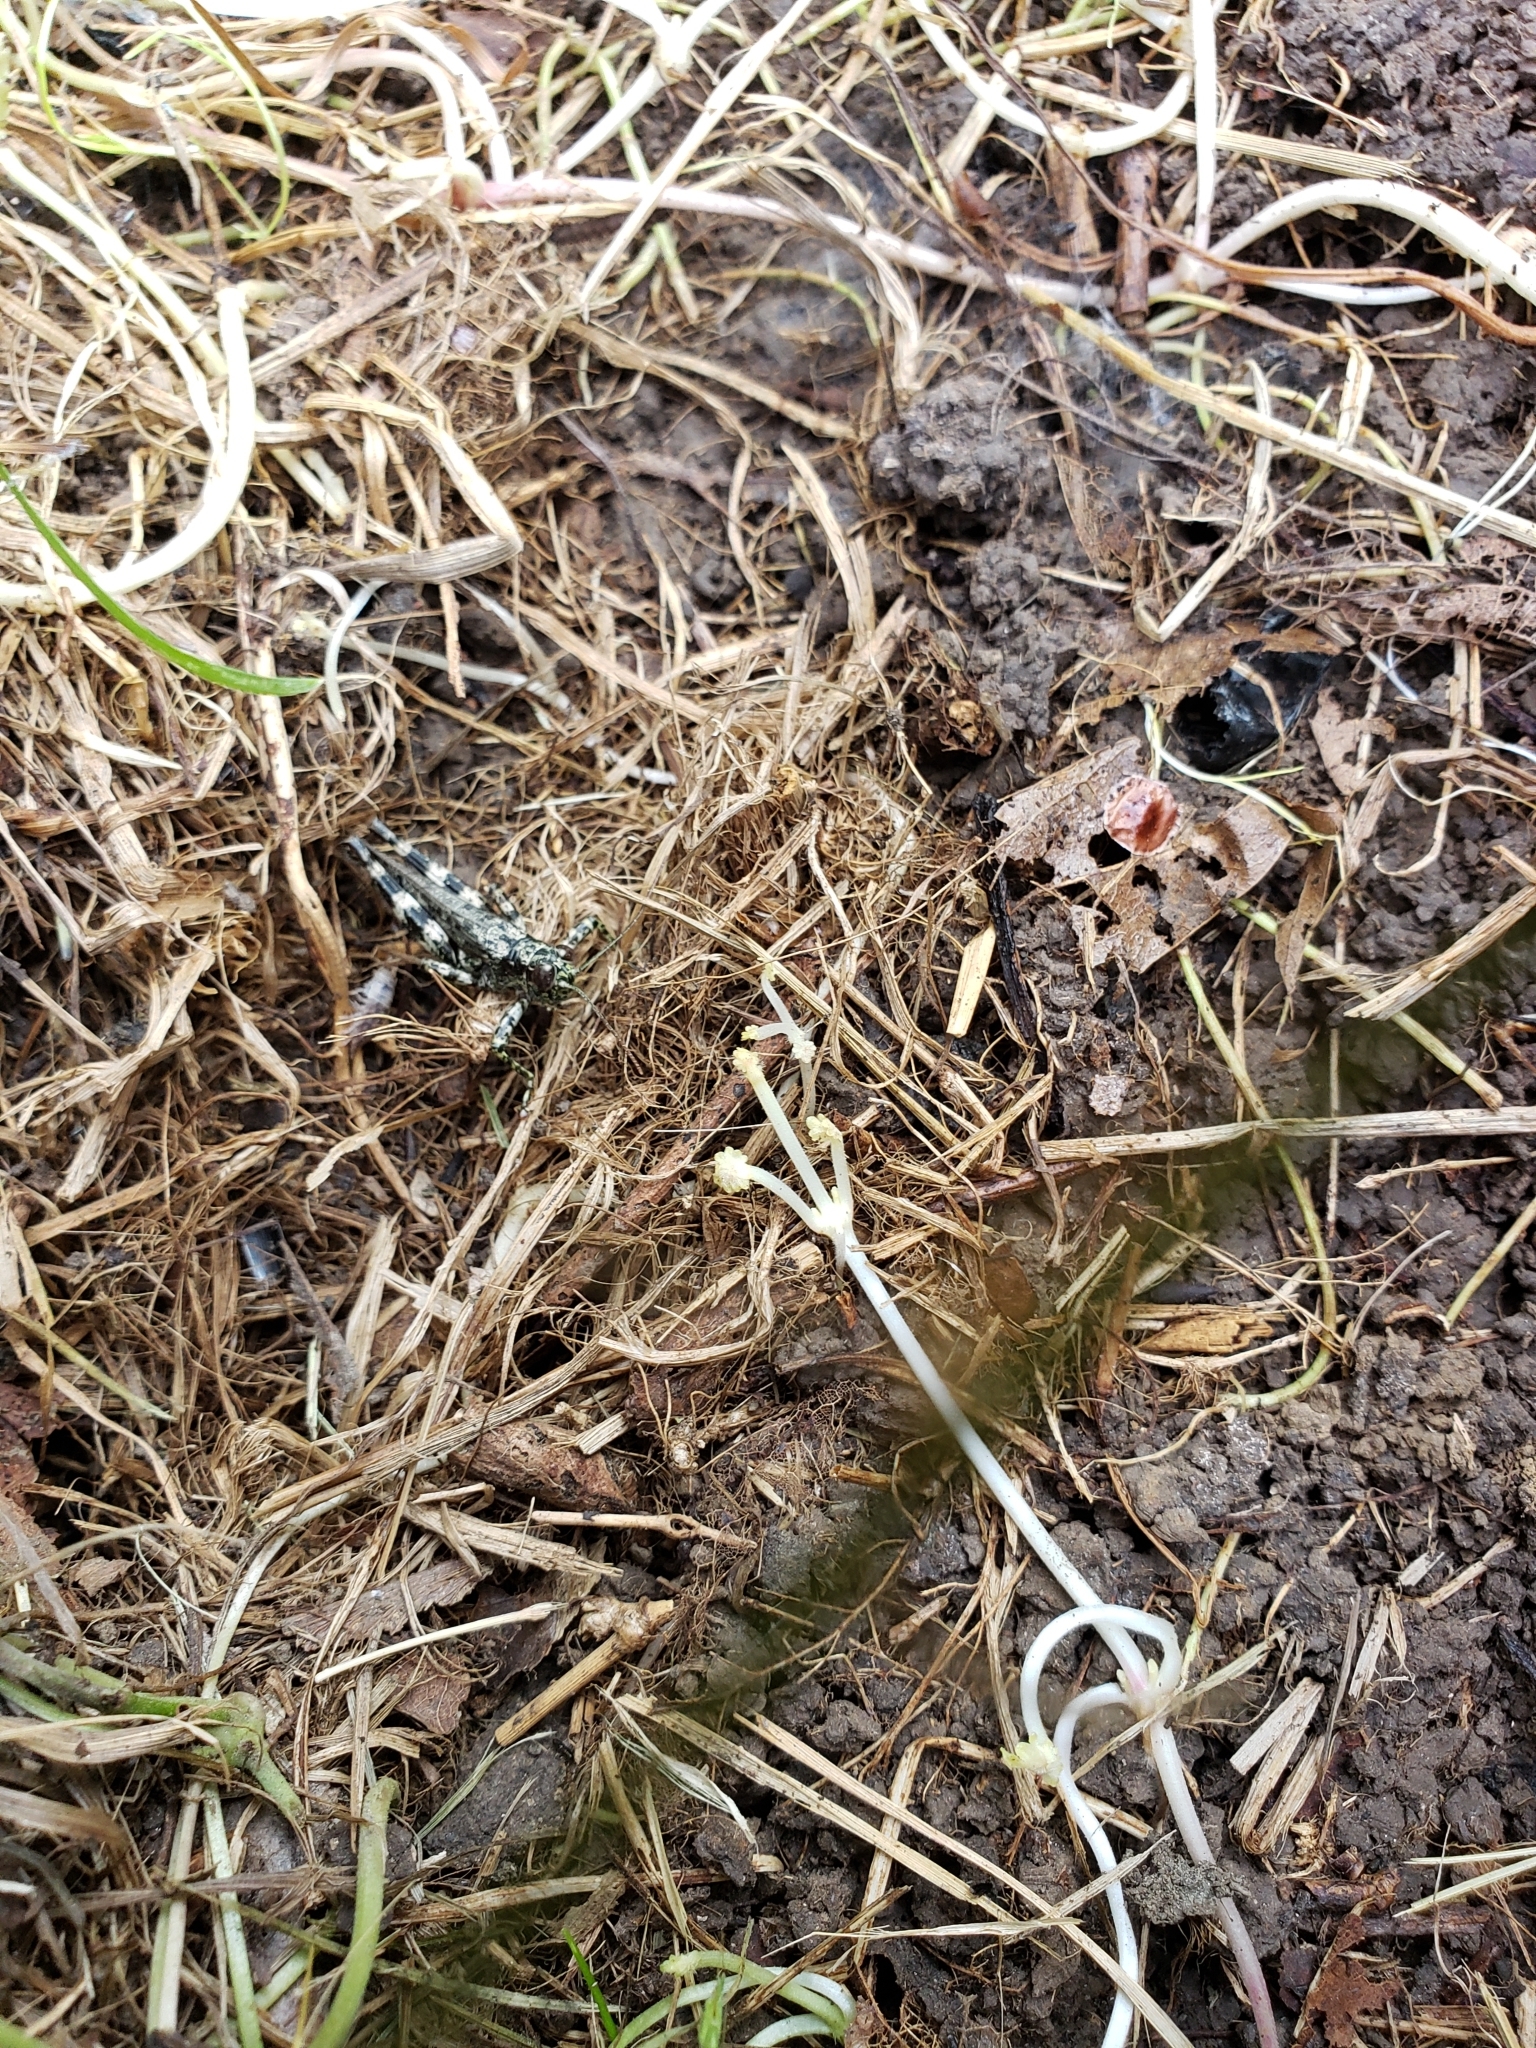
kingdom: Animalia
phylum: Arthropoda
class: Insecta
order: Orthoptera
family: Acrididae
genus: Melanoplus
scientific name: Melanoplus punctulatus
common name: Pine-tree spur-throat grasshopper
